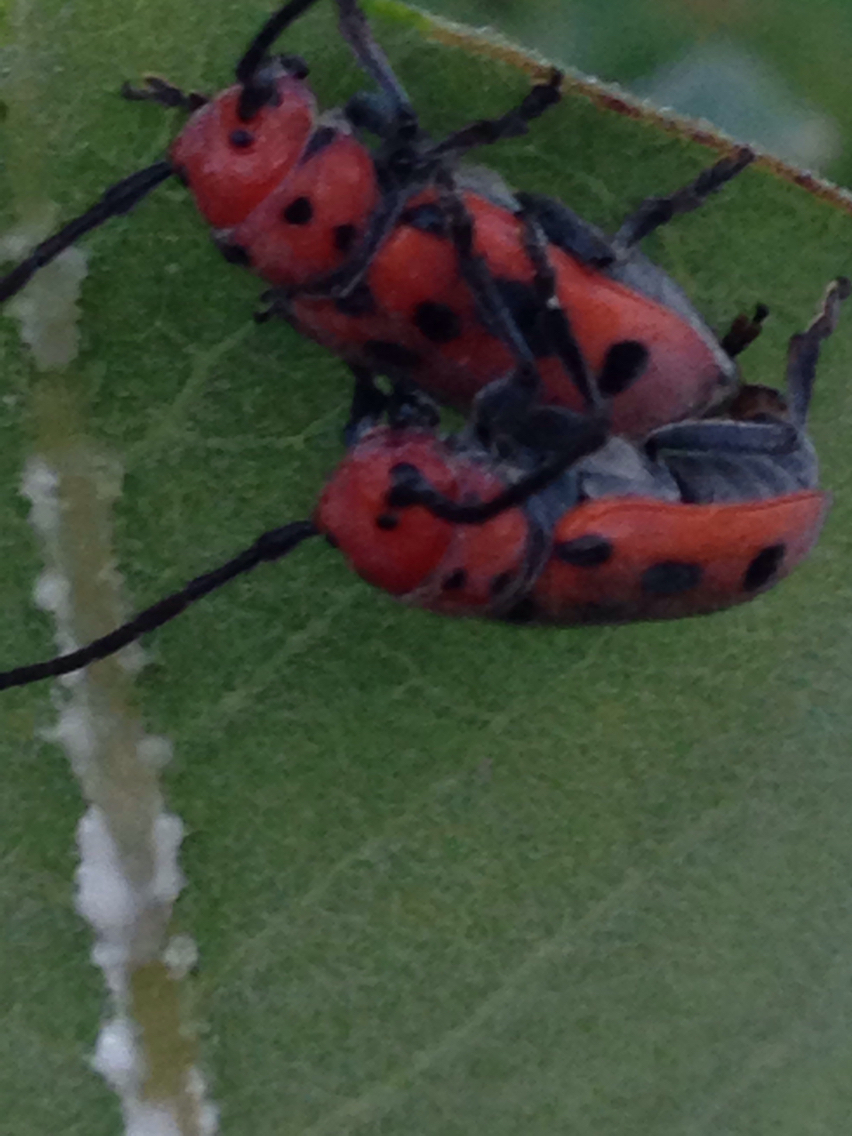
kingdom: Animalia
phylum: Arthropoda
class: Insecta
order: Coleoptera
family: Cerambycidae
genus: Tetraopes
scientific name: Tetraopes tetrophthalmus
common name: Red milkweed beetle
